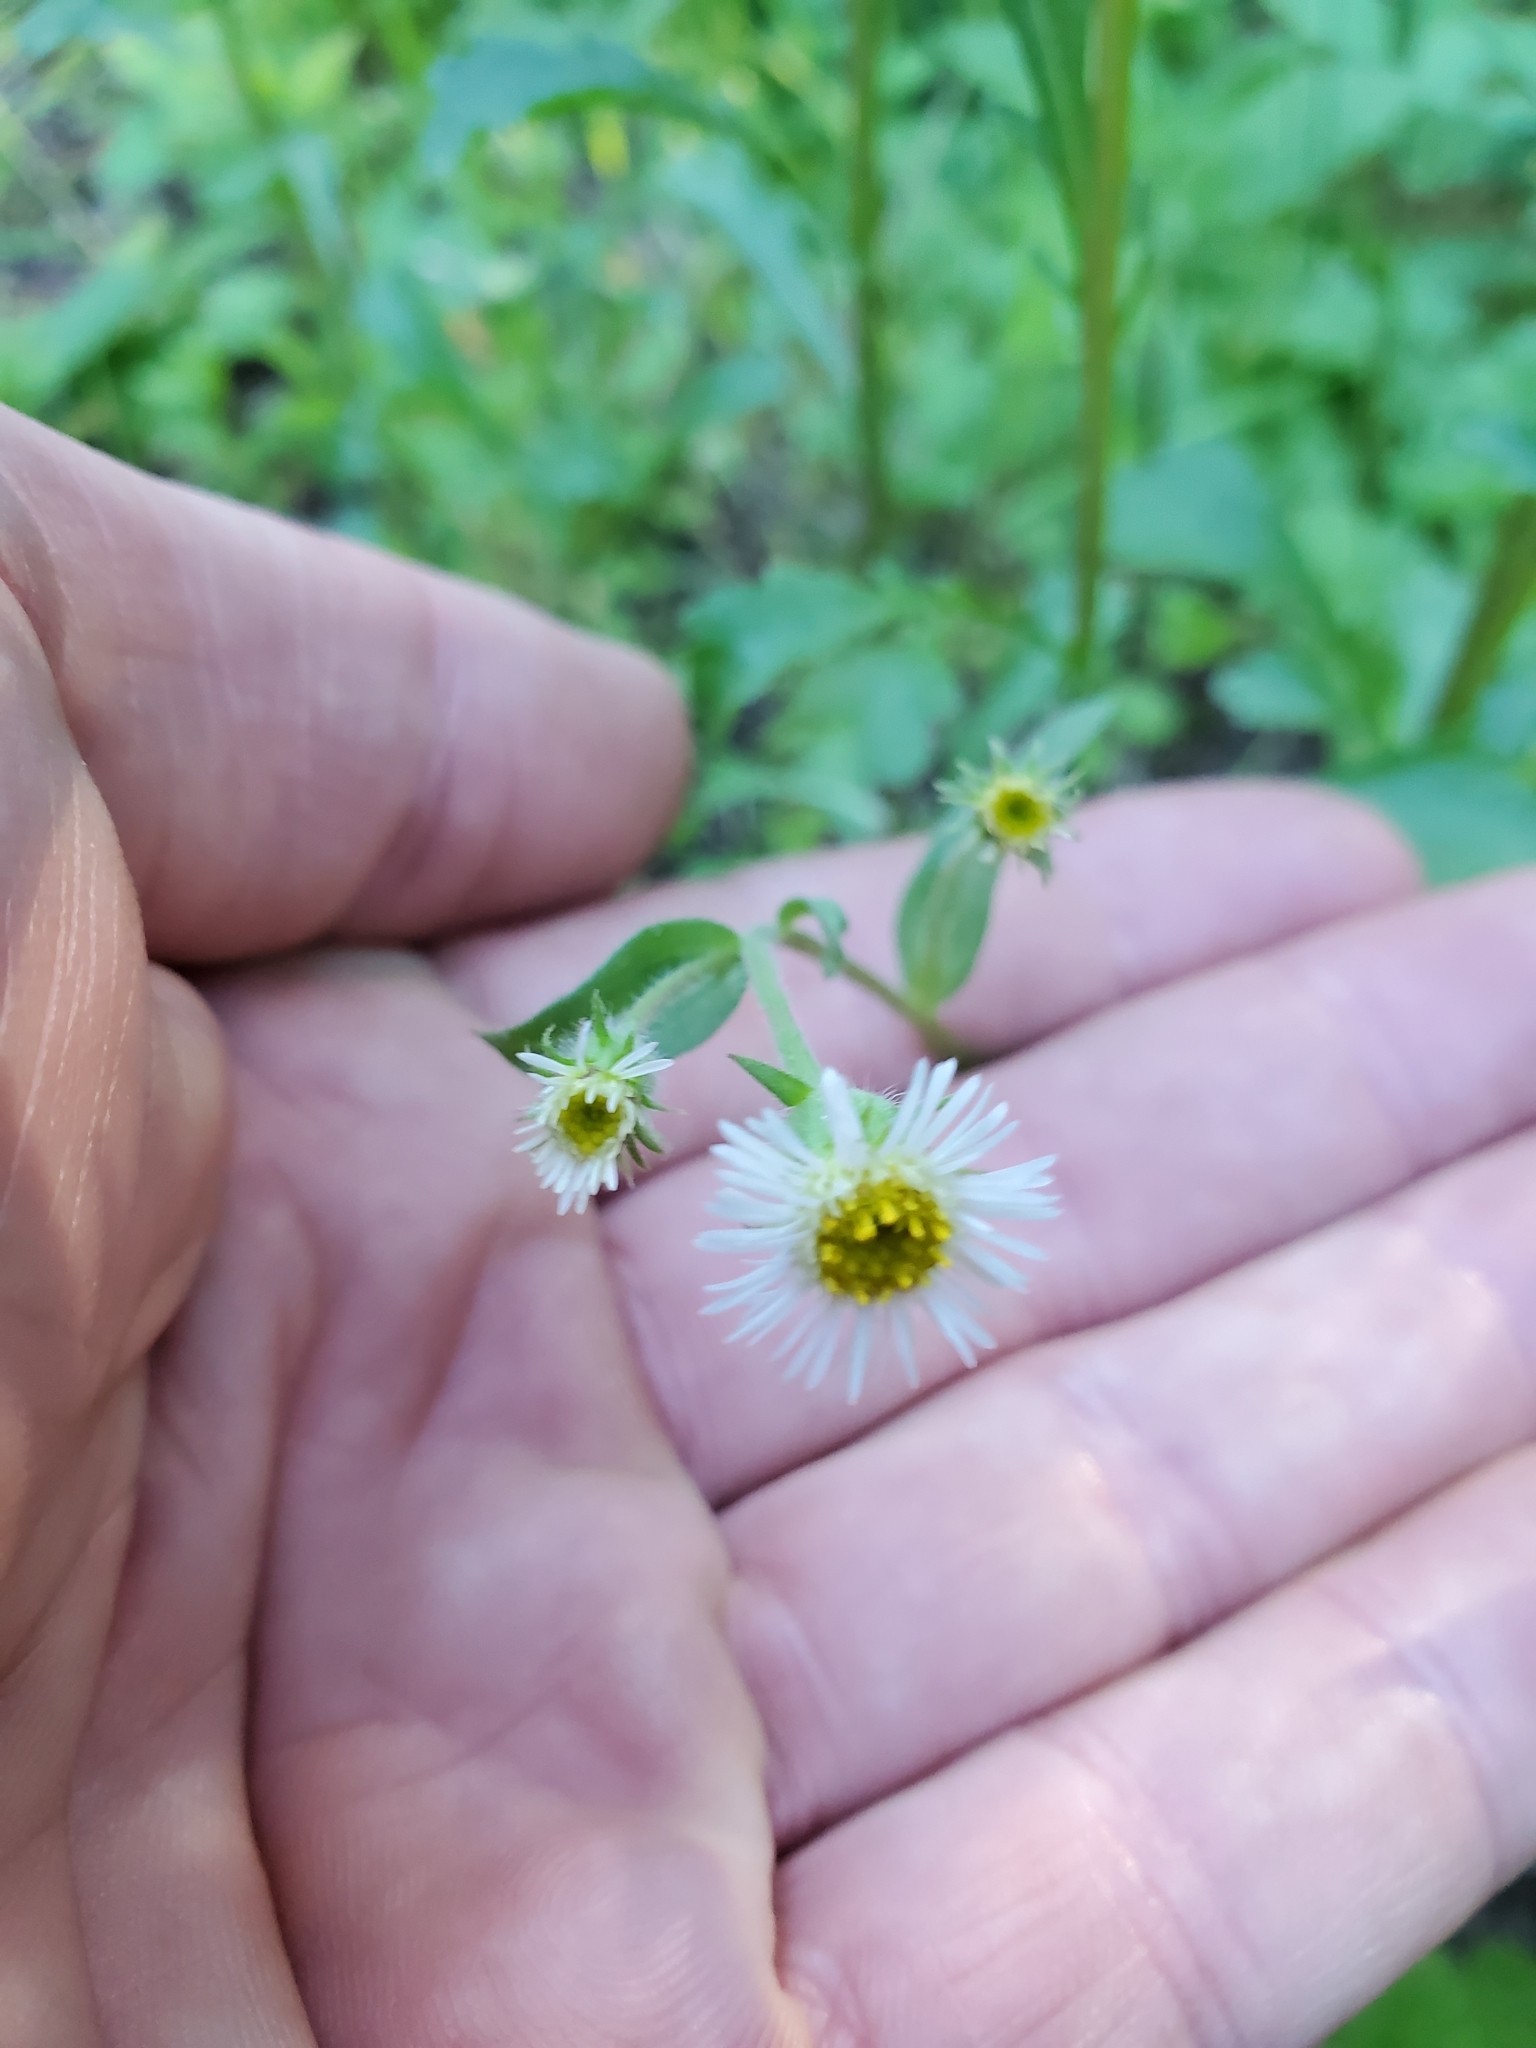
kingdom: Plantae
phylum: Tracheophyta
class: Magnoliopsida
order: Asterales
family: Asteraceae
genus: Erigeron
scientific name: Erigeron elatus
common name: Swamp fleabane
